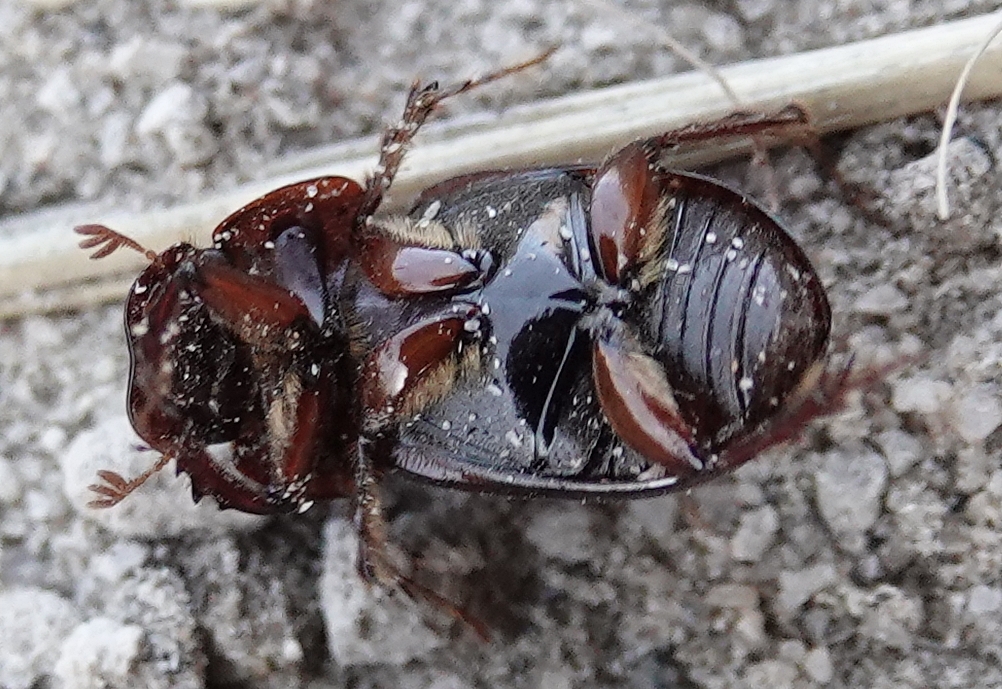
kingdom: Animalia
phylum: Arthropoda
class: Insecta
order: Coleoptera
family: Scarabaeidae
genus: Cryptoscatomaseter
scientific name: Cryptoscatomaseter magnificens
